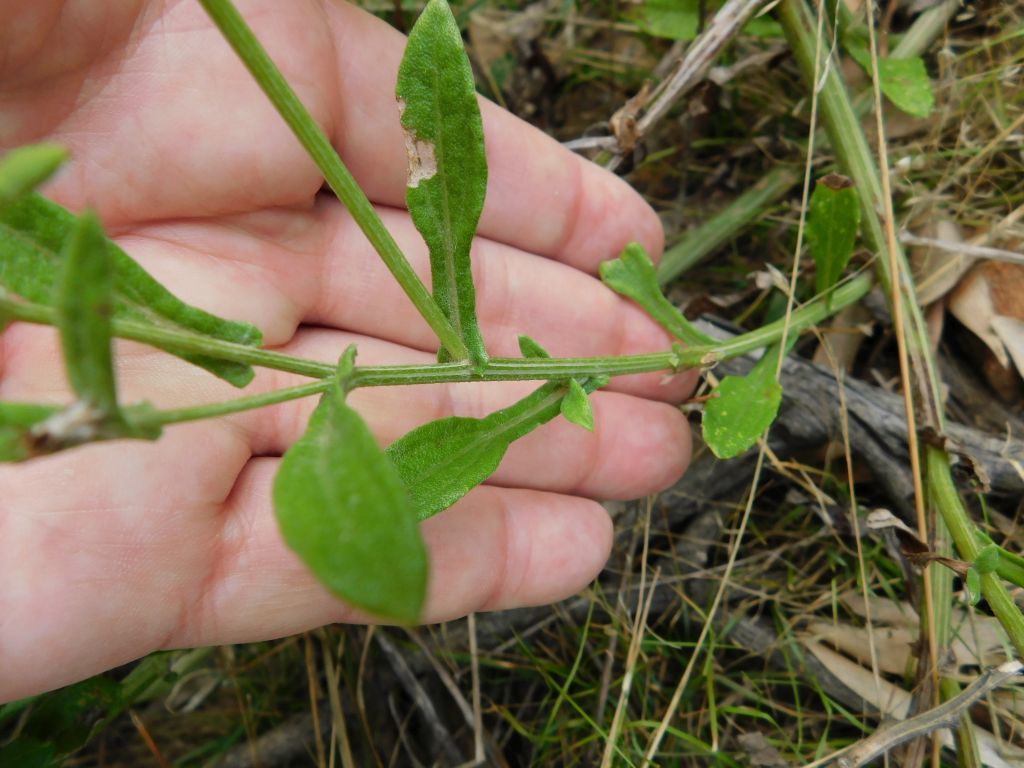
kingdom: Plantae
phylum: Tracheophyta
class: Magnoliopsida
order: Asterales
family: Asteraceae
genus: Arctotis
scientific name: Arctotis scabra
